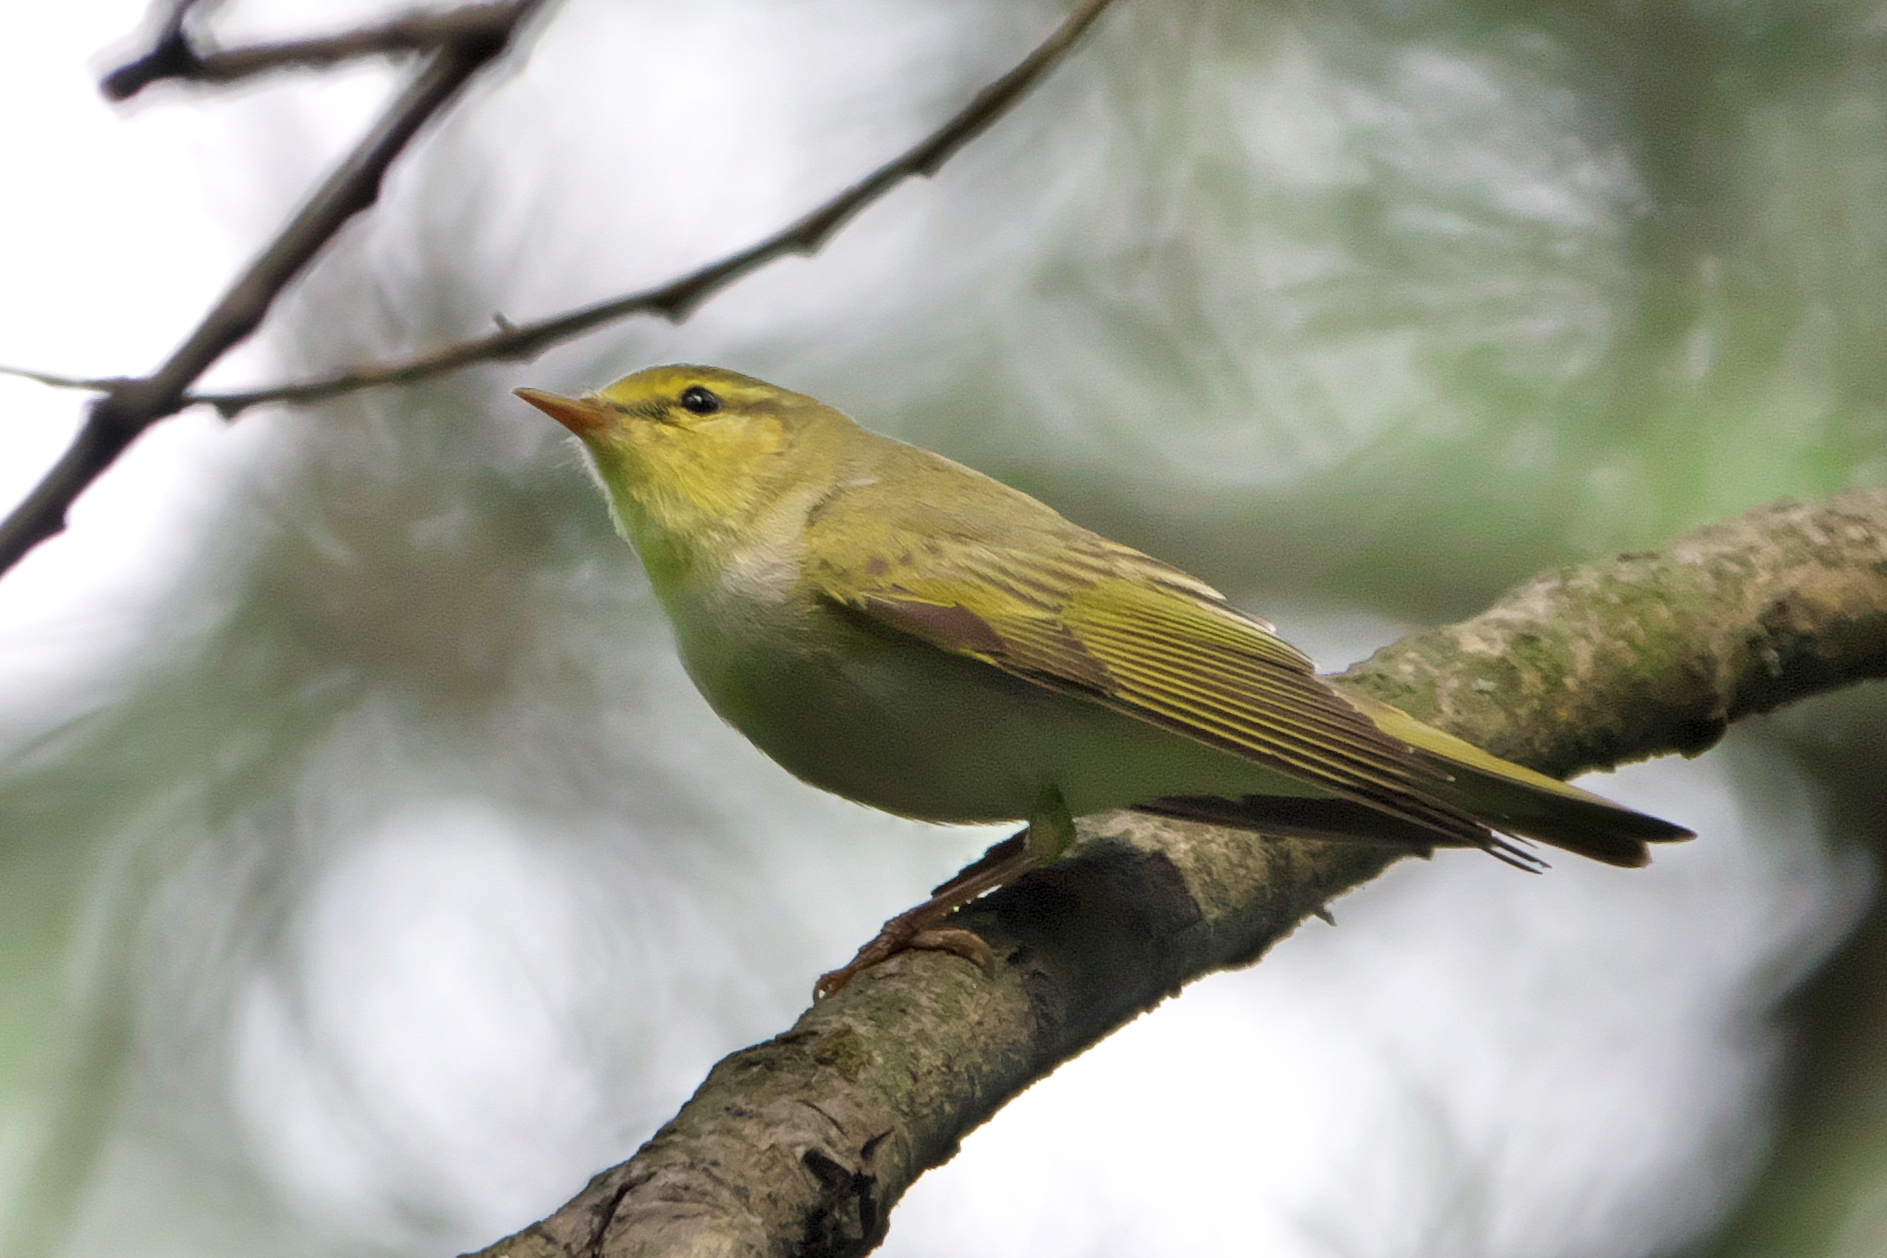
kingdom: Animalia
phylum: Chordata
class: Aves
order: Passeriformes
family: Phylloscopidae
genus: Phylloscopus
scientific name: Phylloscopus sibillatrix
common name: Wood warbler
